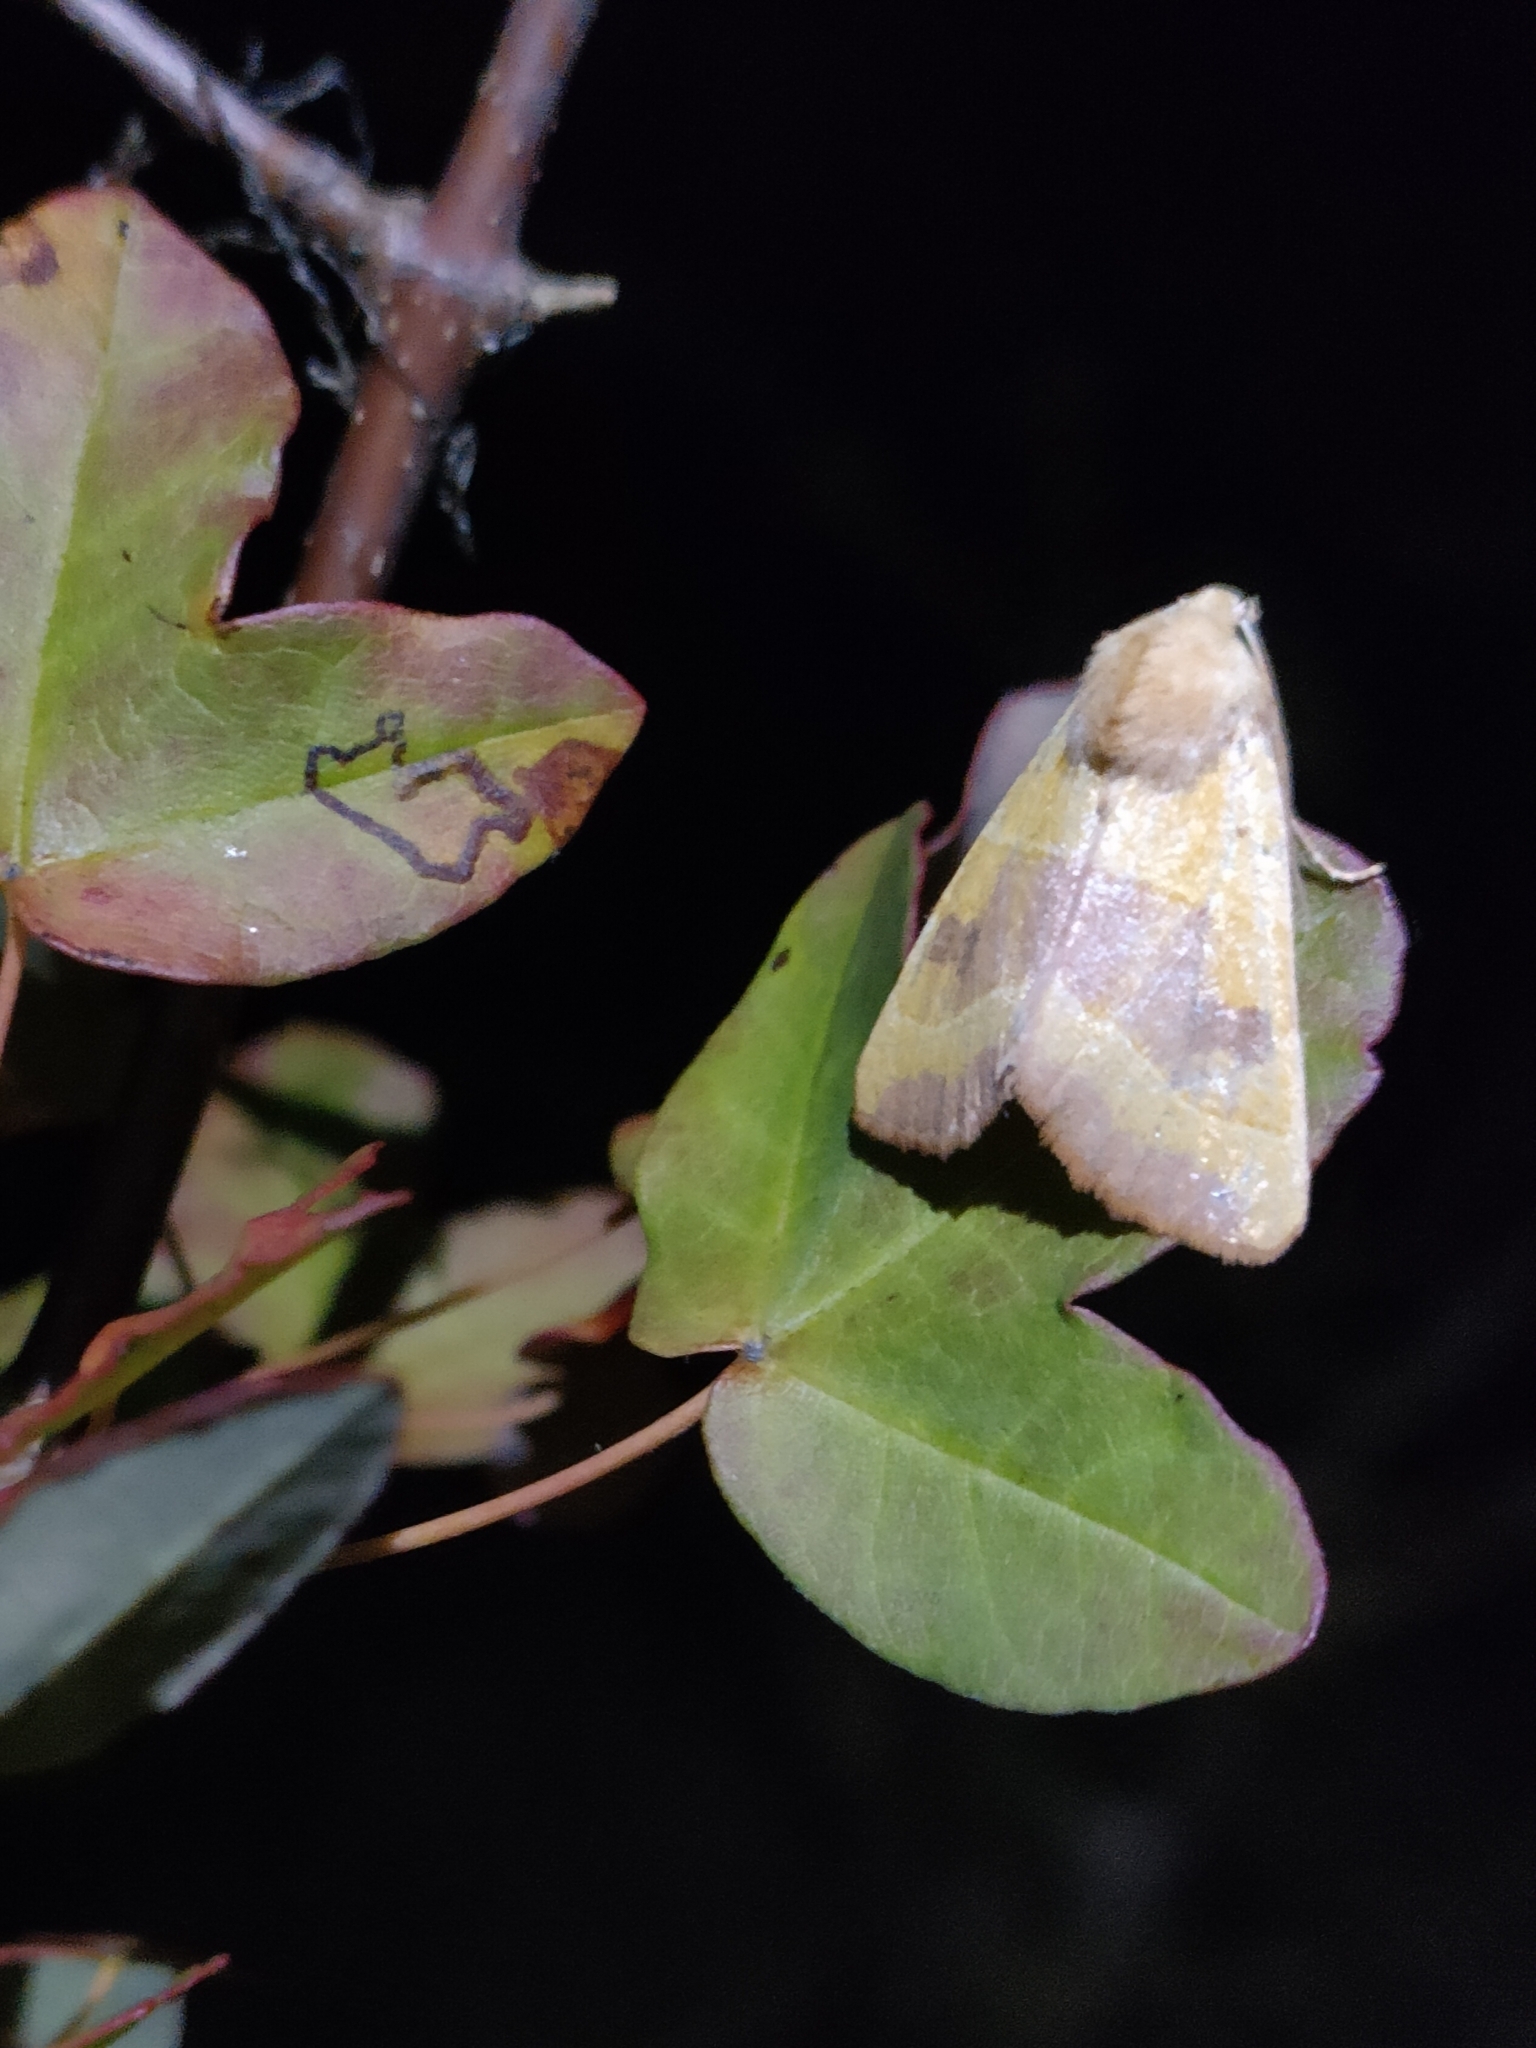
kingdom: Animalia
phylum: Arthropoda
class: Insecta
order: Lepidoptera
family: Noctuidae
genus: Atethmia
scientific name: Atethmia centrago
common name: Centre-barred sallow
